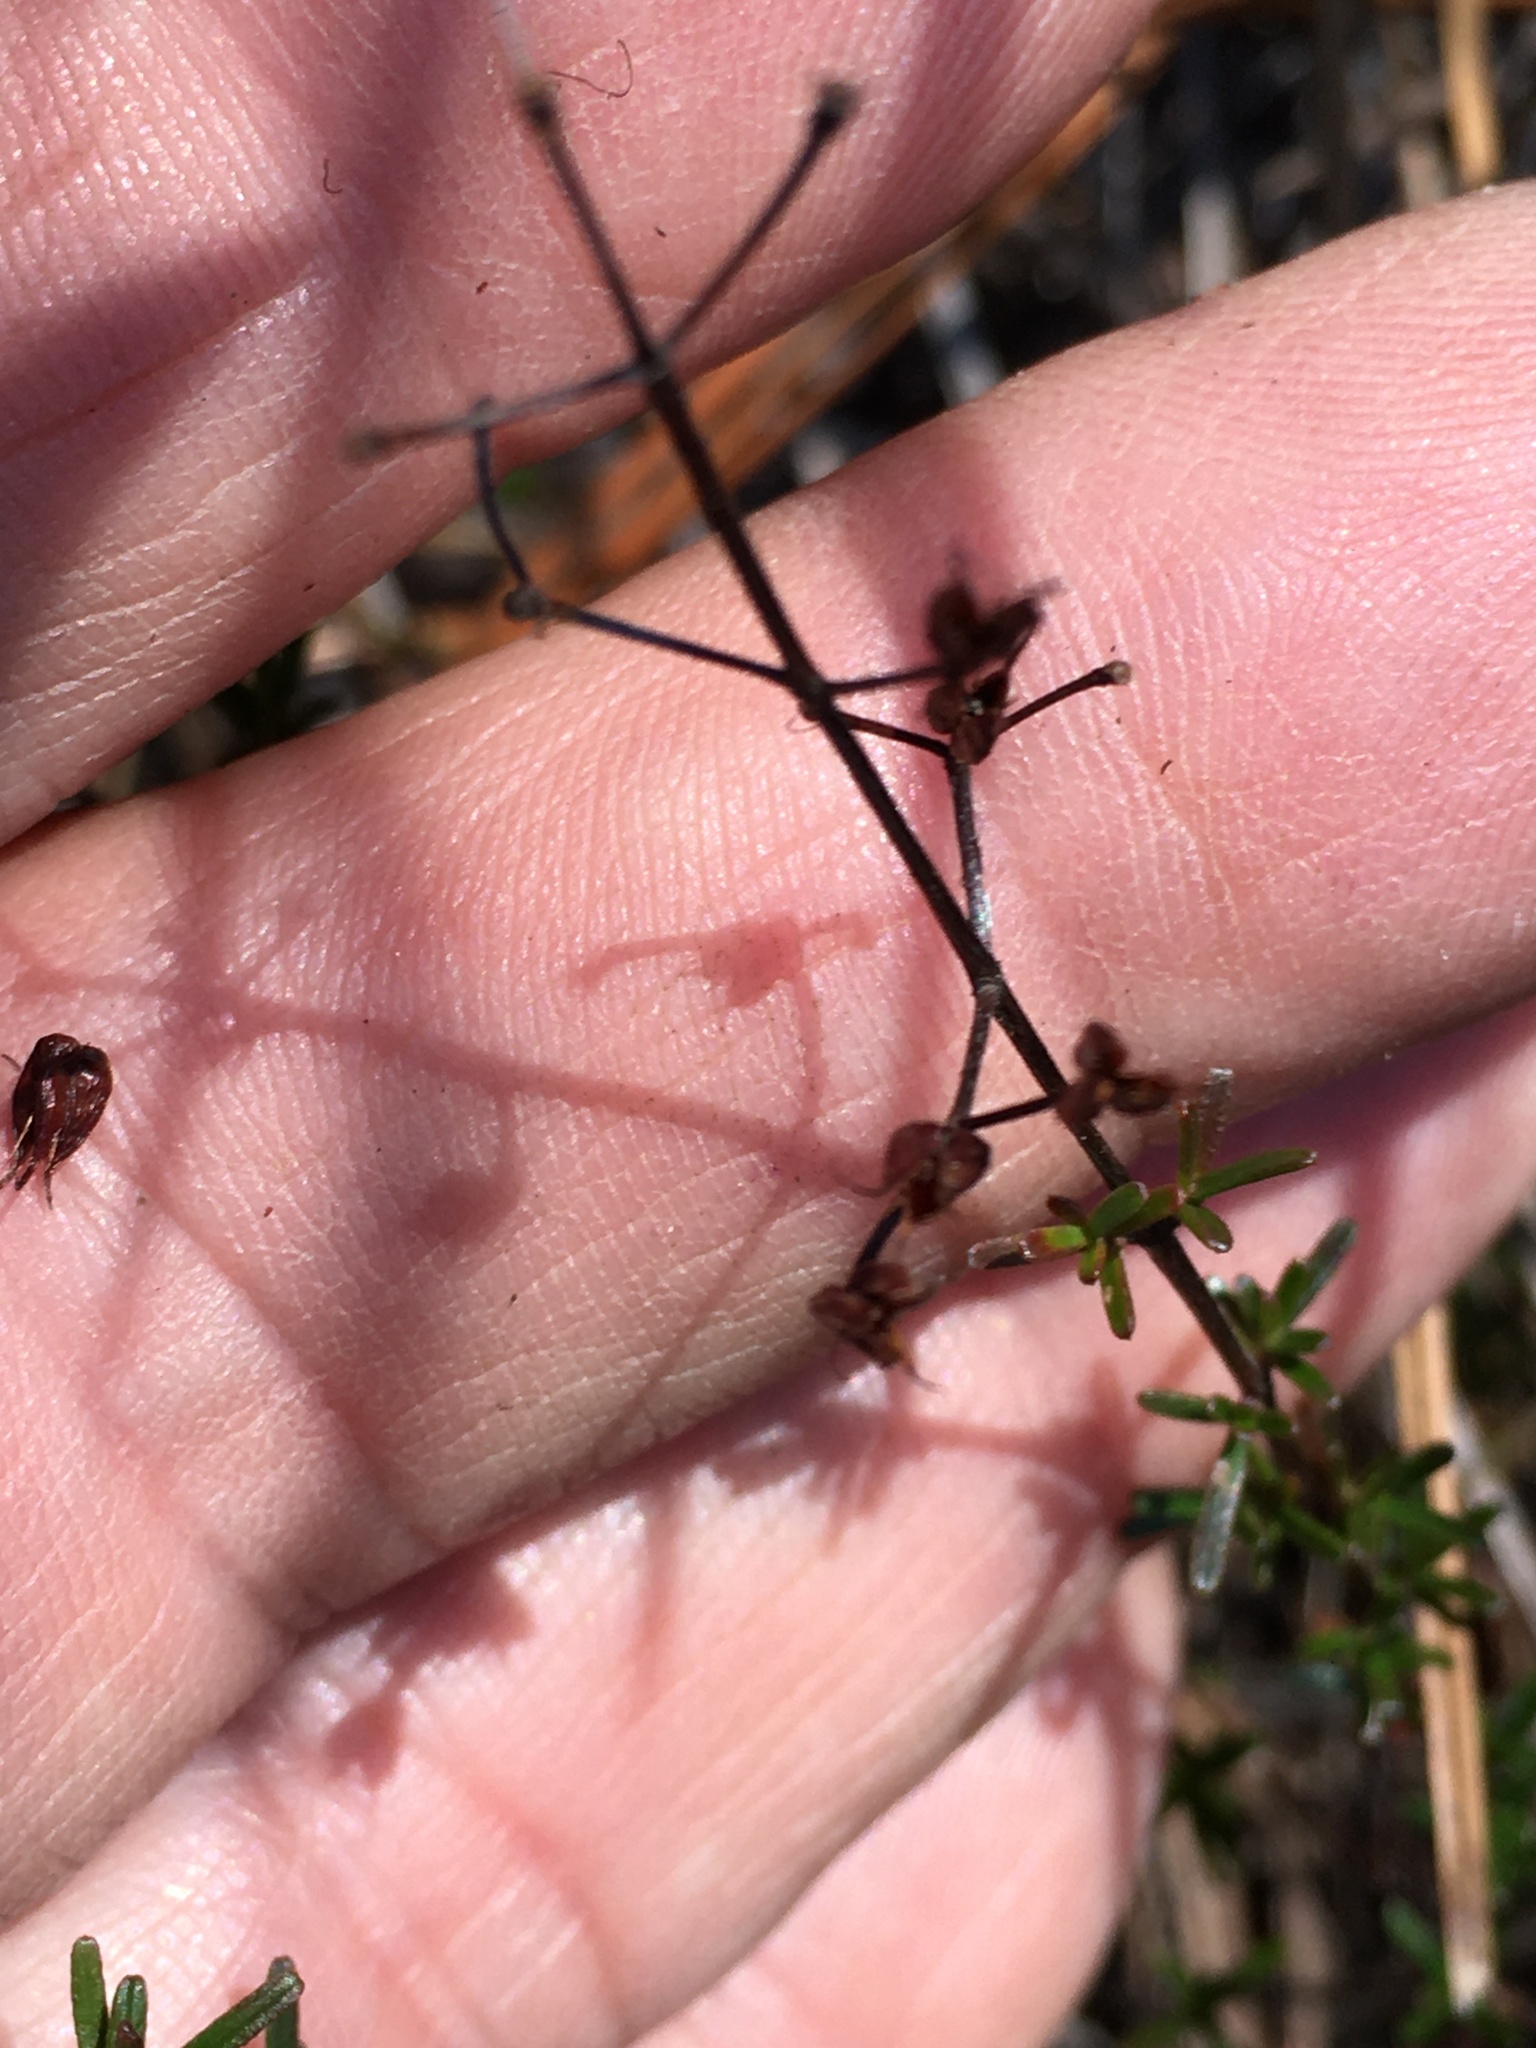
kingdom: Plantae
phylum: Tracheophyta
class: Magnoliopsida
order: Malpighiales
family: Hypericaceae
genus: Hypericum
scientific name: Hypericum lloydii
